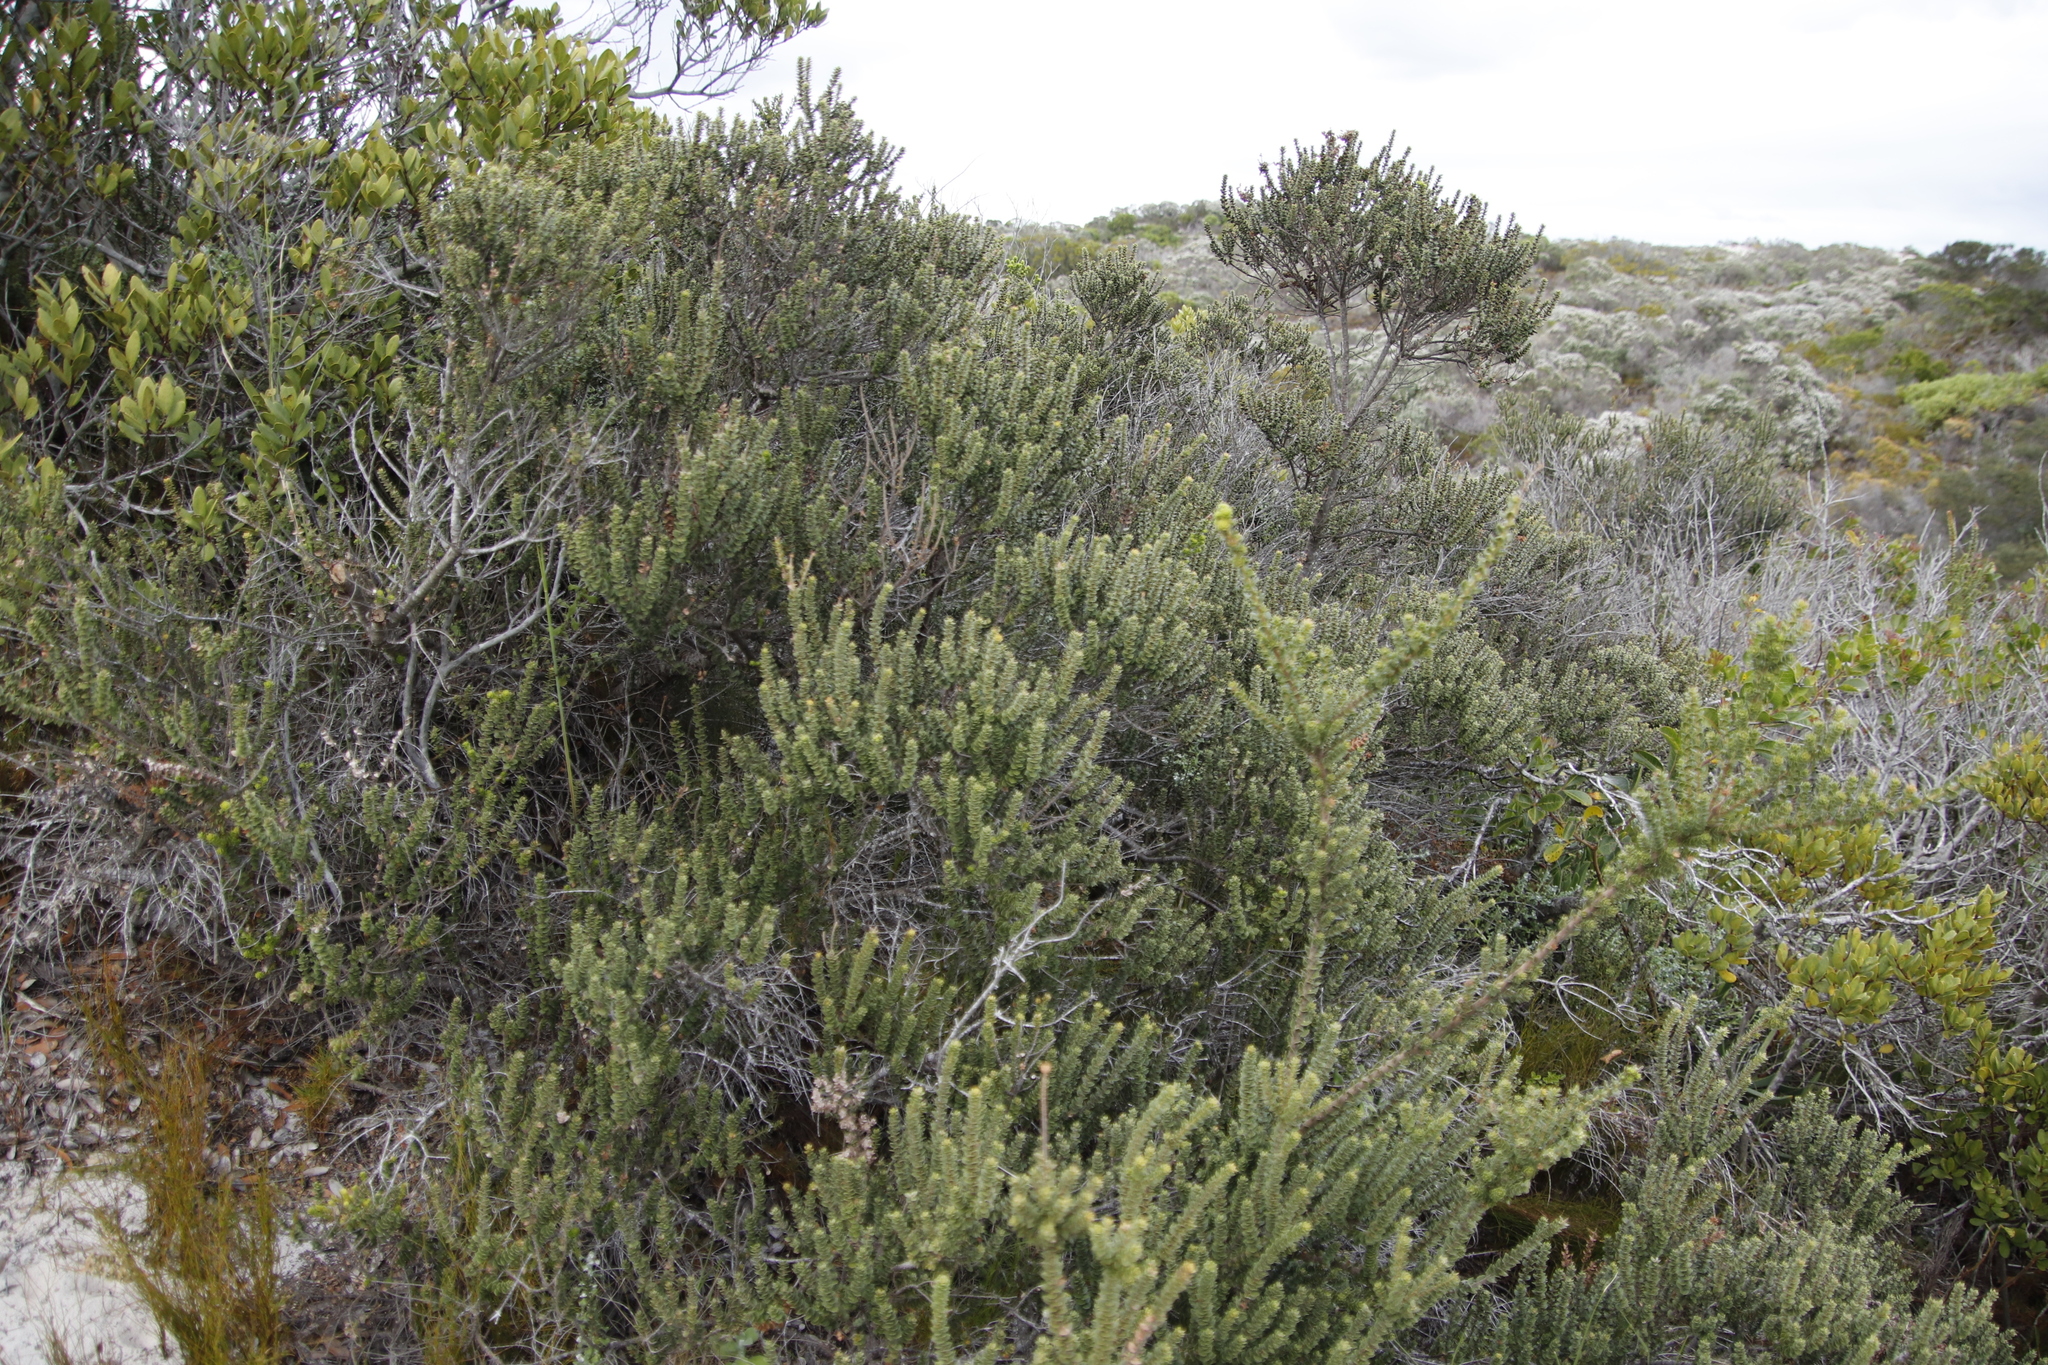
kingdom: Plantae
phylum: Tracheophyta
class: Magnoliopsida
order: Fagales
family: Myricaceae
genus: Morella
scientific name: Morella cordifolia
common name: Waxberry
